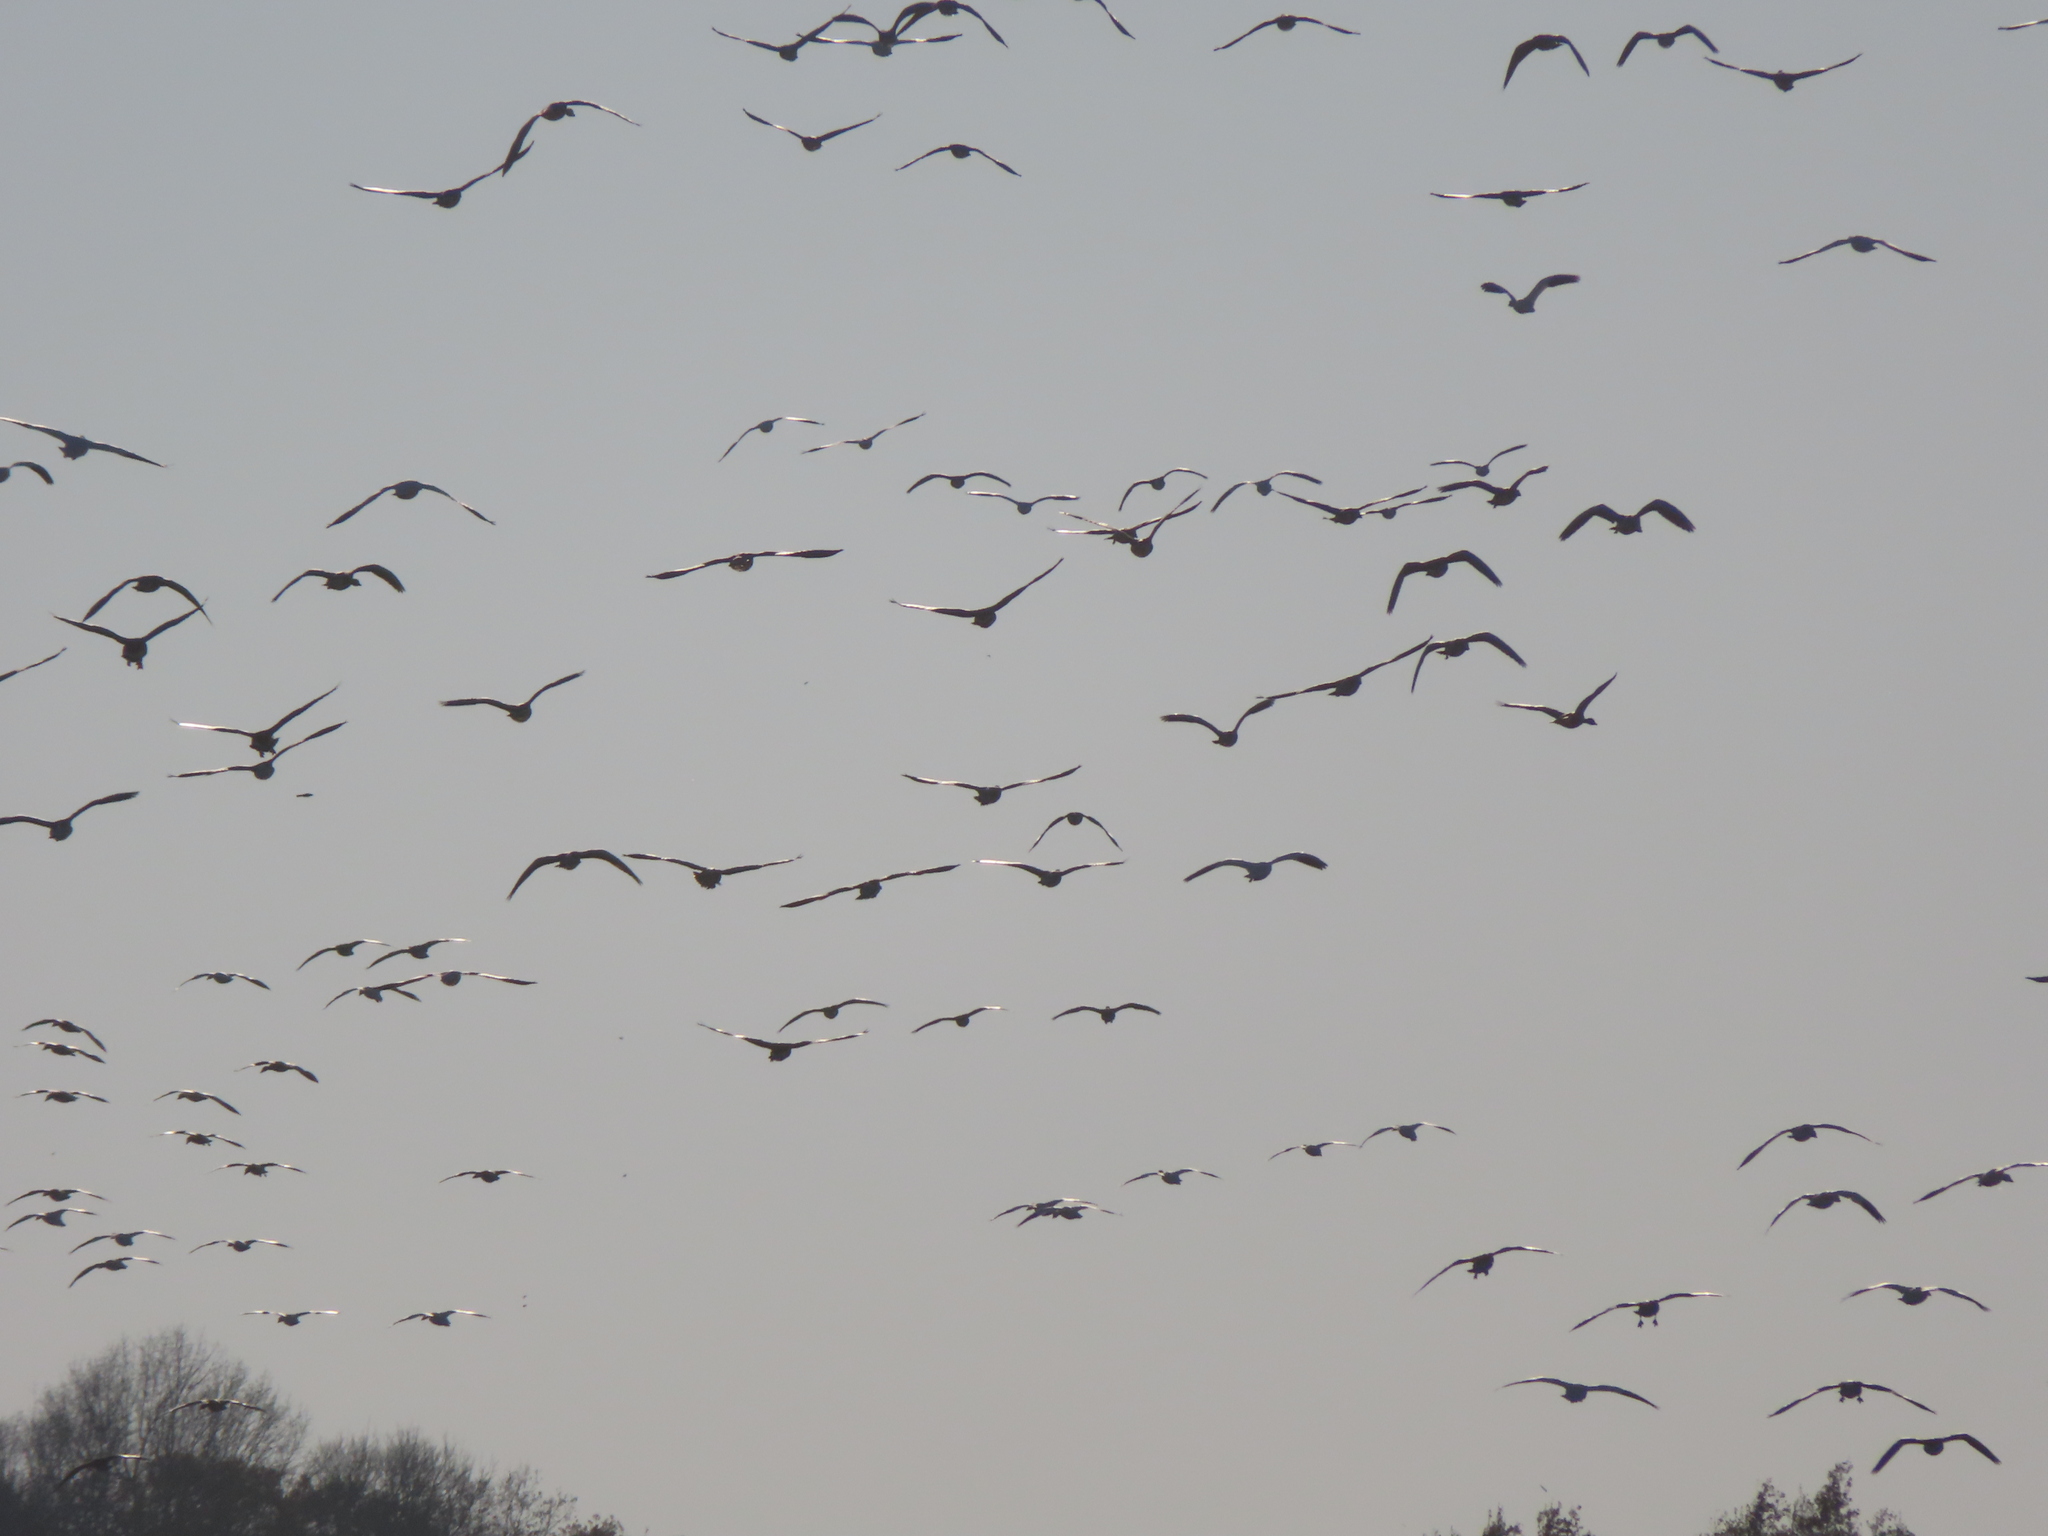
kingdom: Animalia
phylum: Chordata
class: Aves
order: Anseriformes
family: Anatidae
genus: Anser
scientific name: Anser caerulescens
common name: Snow goose
